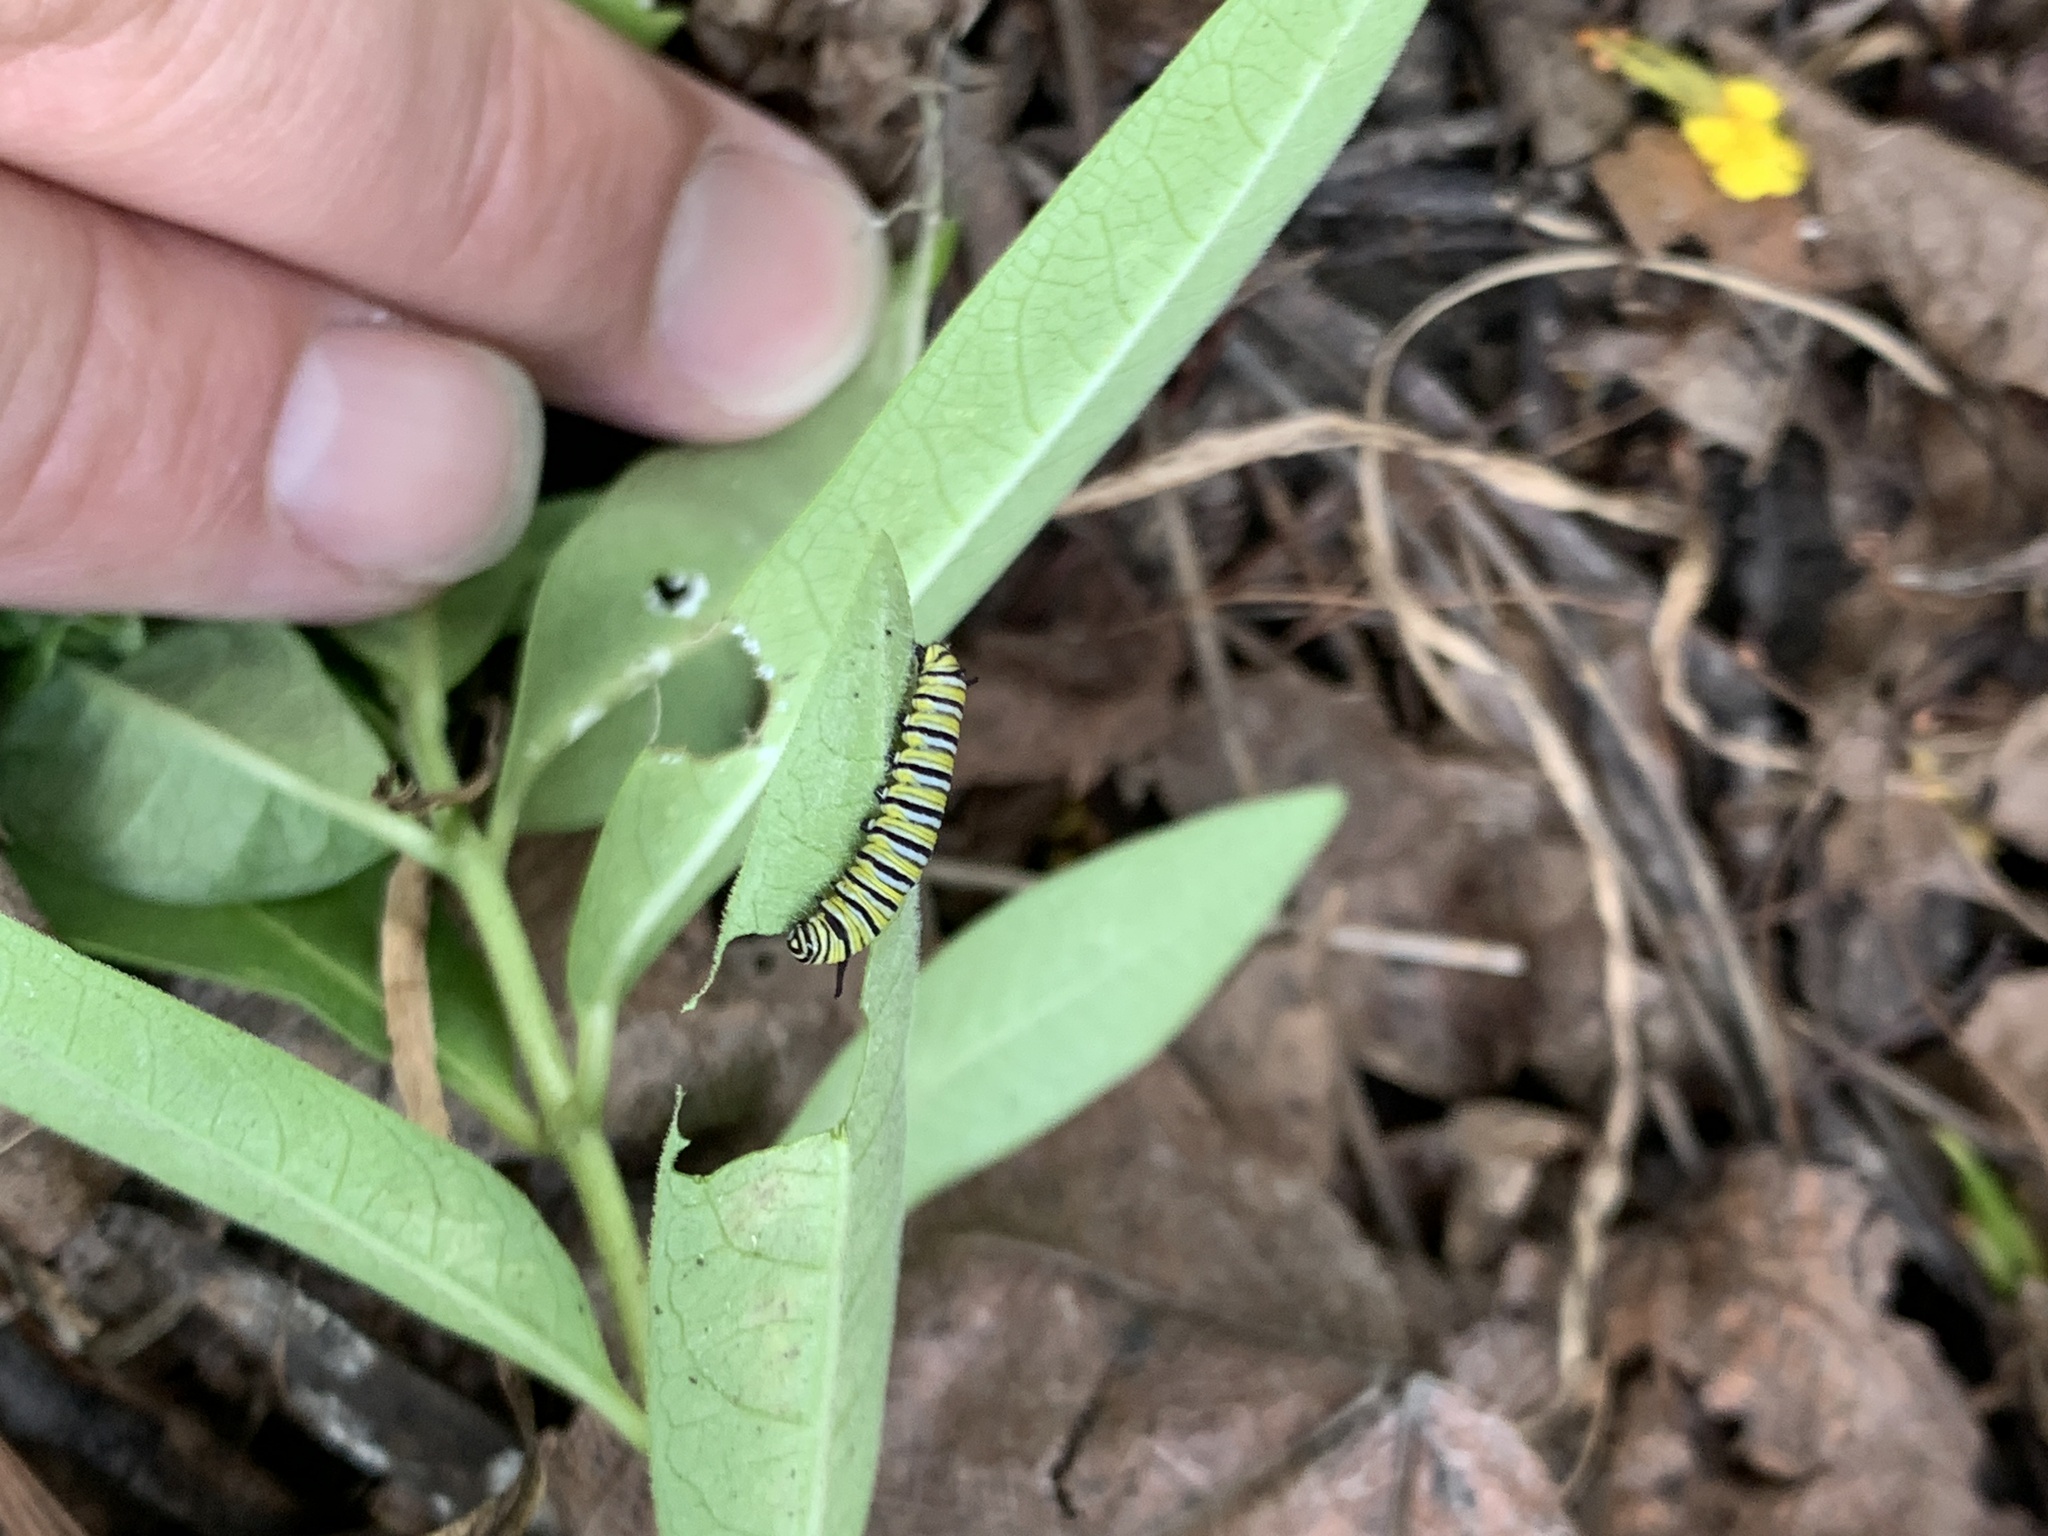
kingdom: Animalia
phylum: Arthropoda
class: Insecta
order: Lepidoptera
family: Nymphalidae
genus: Danaus
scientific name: Danaus plexippus
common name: Monarch
